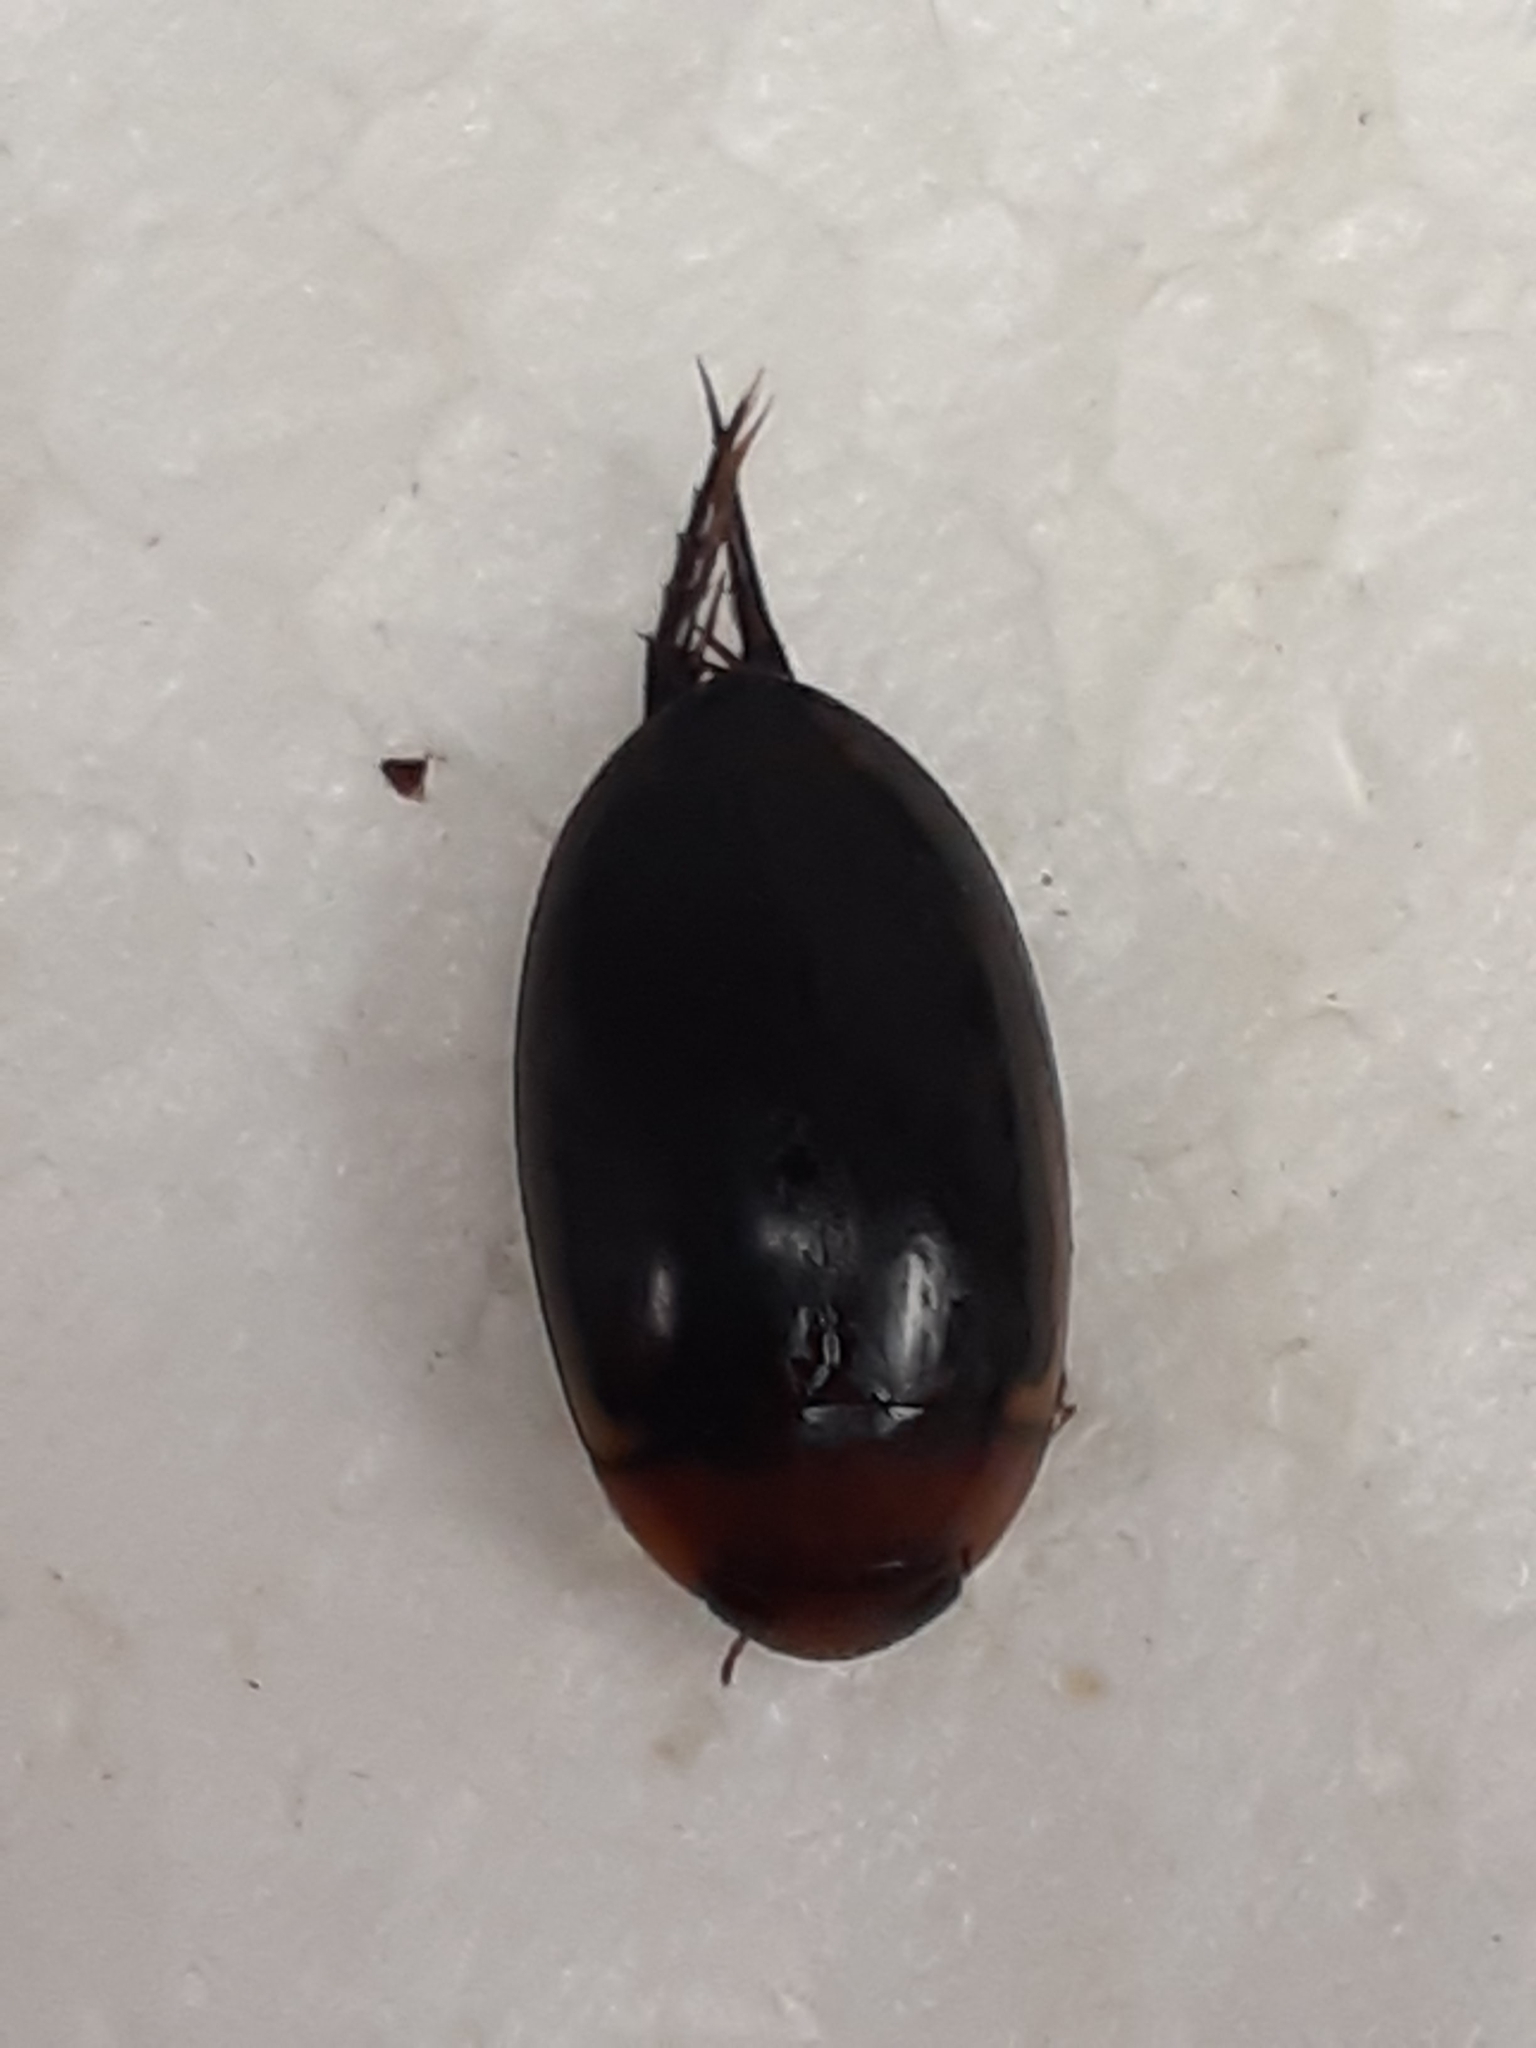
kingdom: Animalia
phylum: Arthropoda
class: Insecta
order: Coleoptera
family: Dytiscidae
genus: Hydaticus
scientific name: Hydaticus bimarginatus
